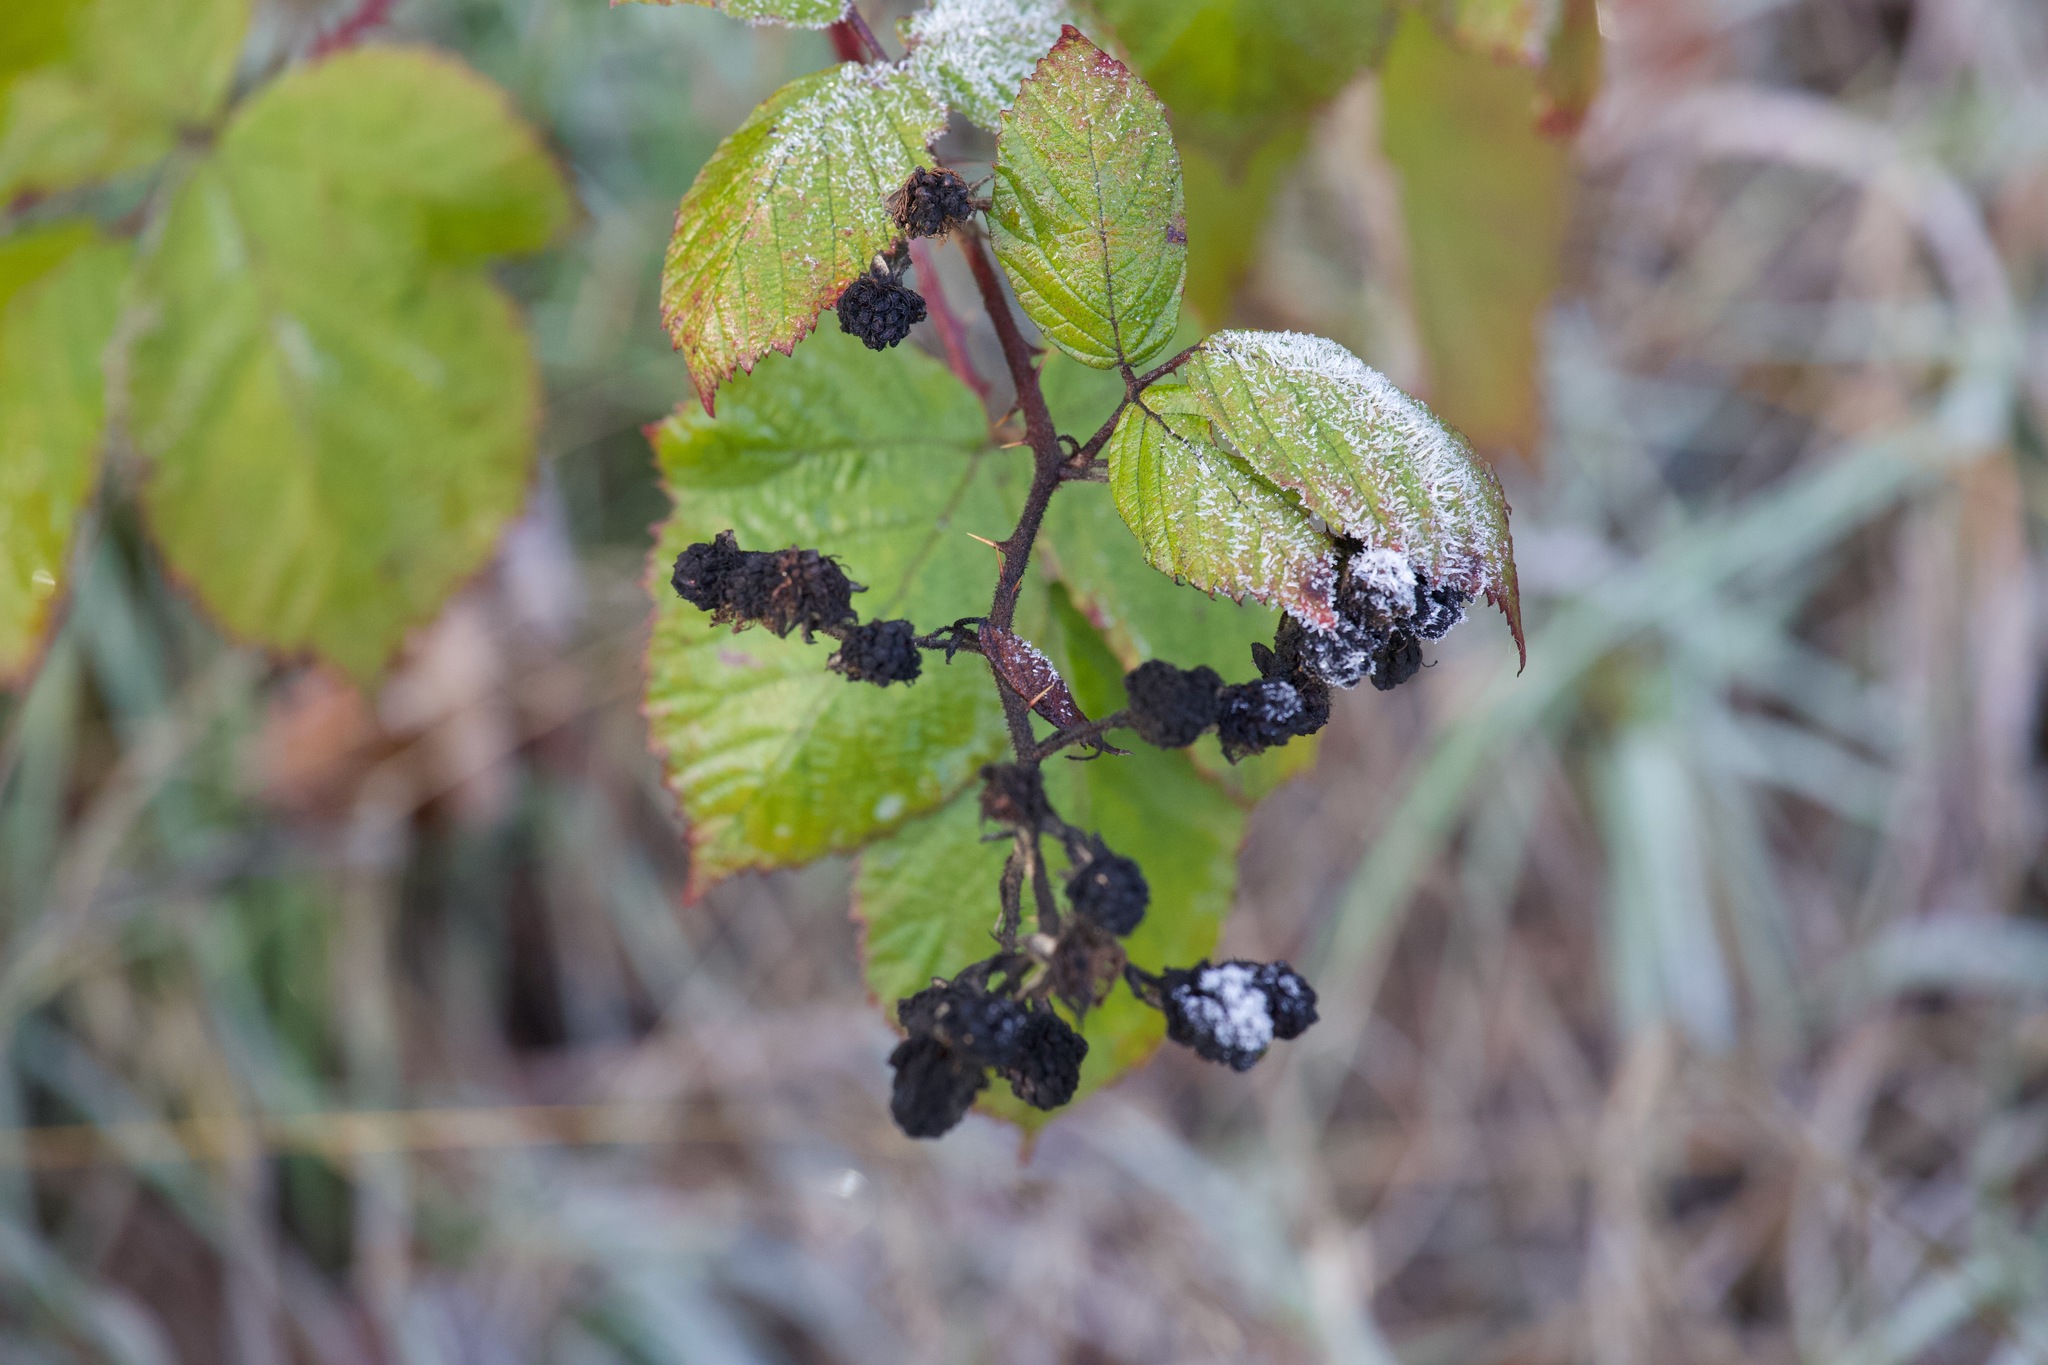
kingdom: Plantae
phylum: Tracheophyta
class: Magnoliopsida
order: Rosales
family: Rosaceae
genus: Rubus
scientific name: Rubus bifrons
